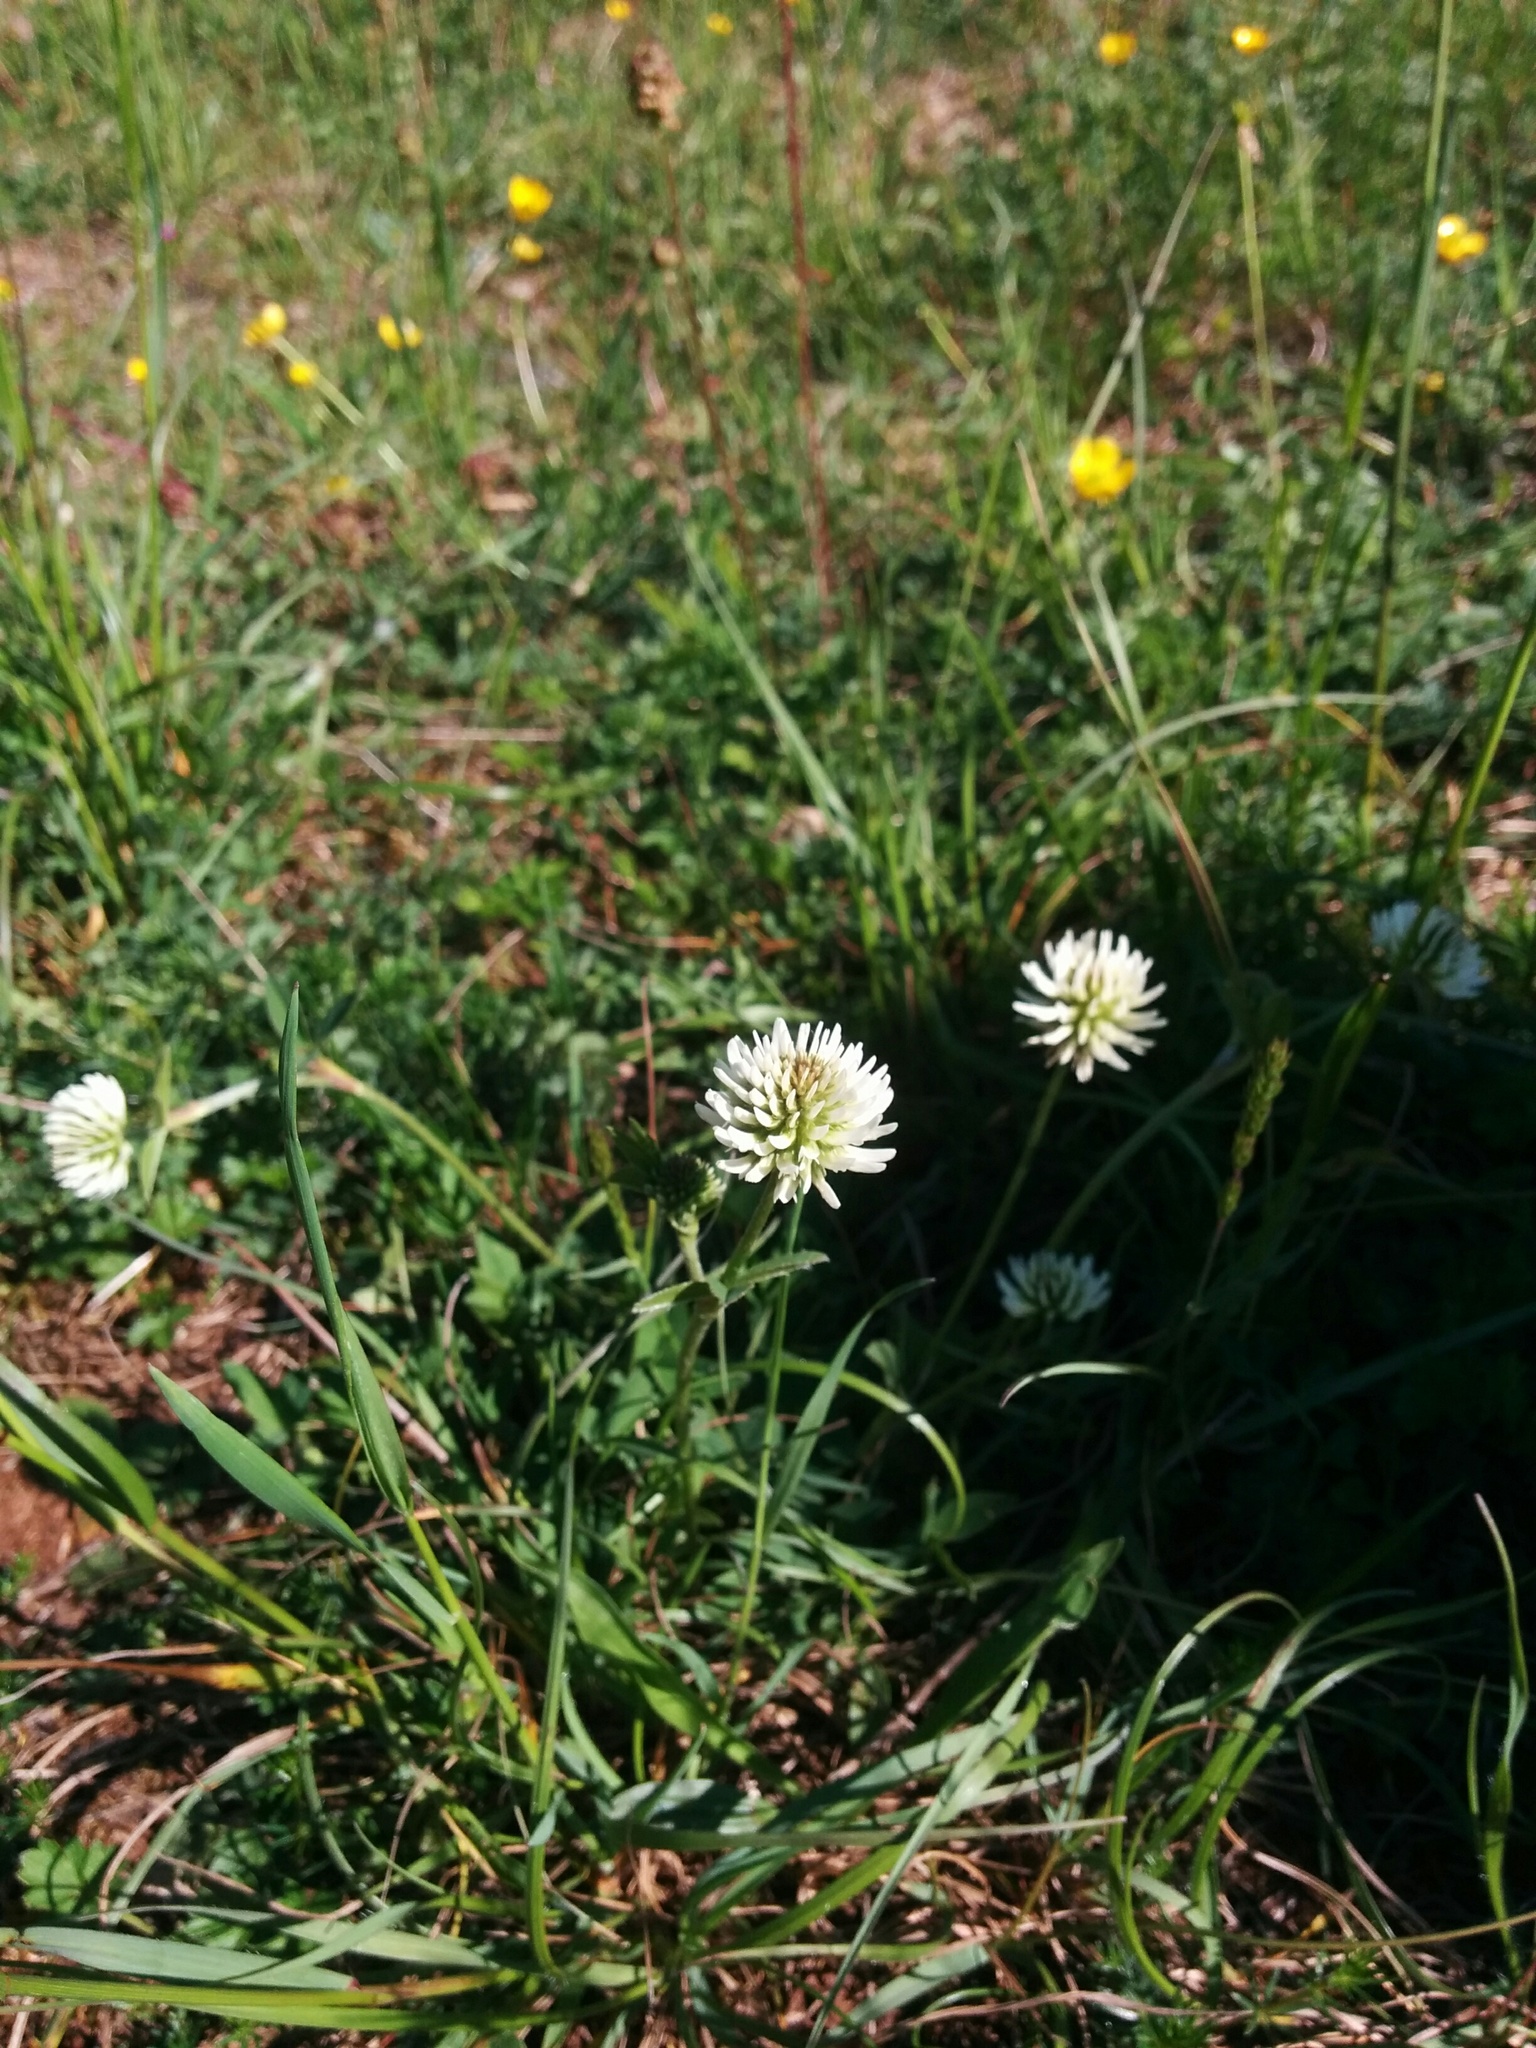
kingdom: Plantae
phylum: Tracheophyta
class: Magnoliopsida
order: Fabales
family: Fabaceae
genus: Trifolium
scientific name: Trifolium montanum
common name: Mountain clover
